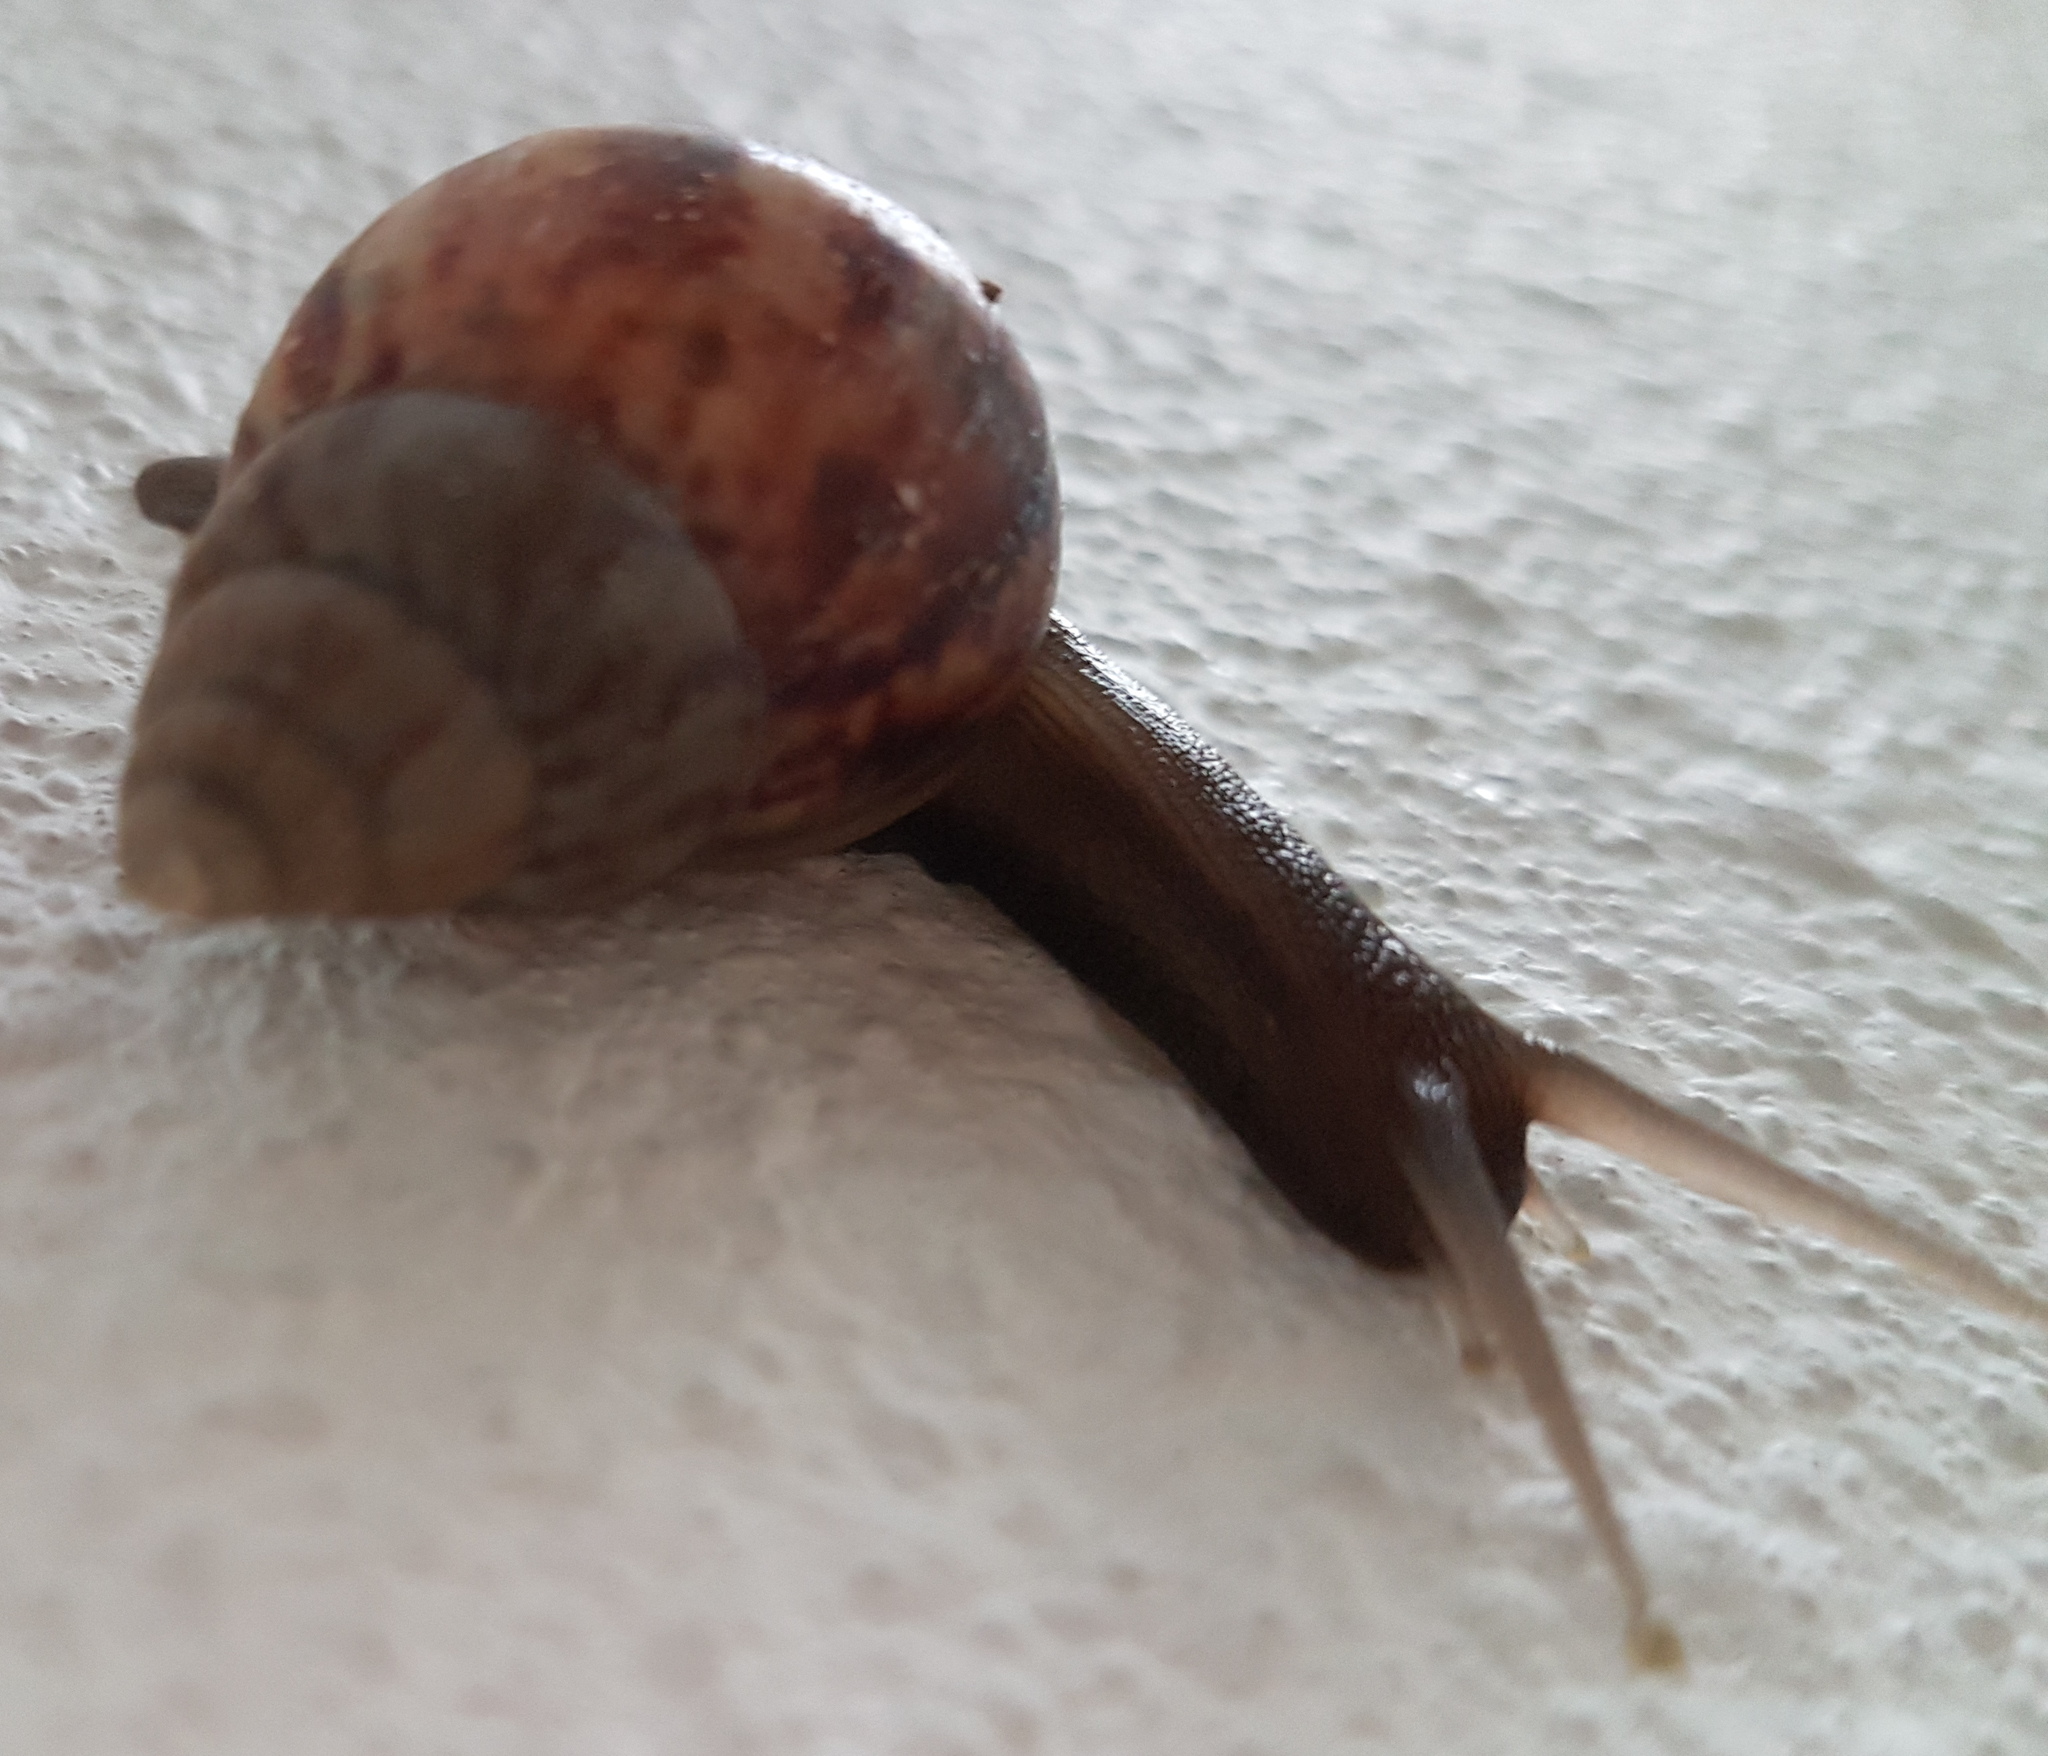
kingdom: Animalia
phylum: Mollusca
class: Gastropoda
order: Stylommatophora
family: Achatinidae
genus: Lissachatina
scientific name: Lissachatina fulica
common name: Giant african snail
